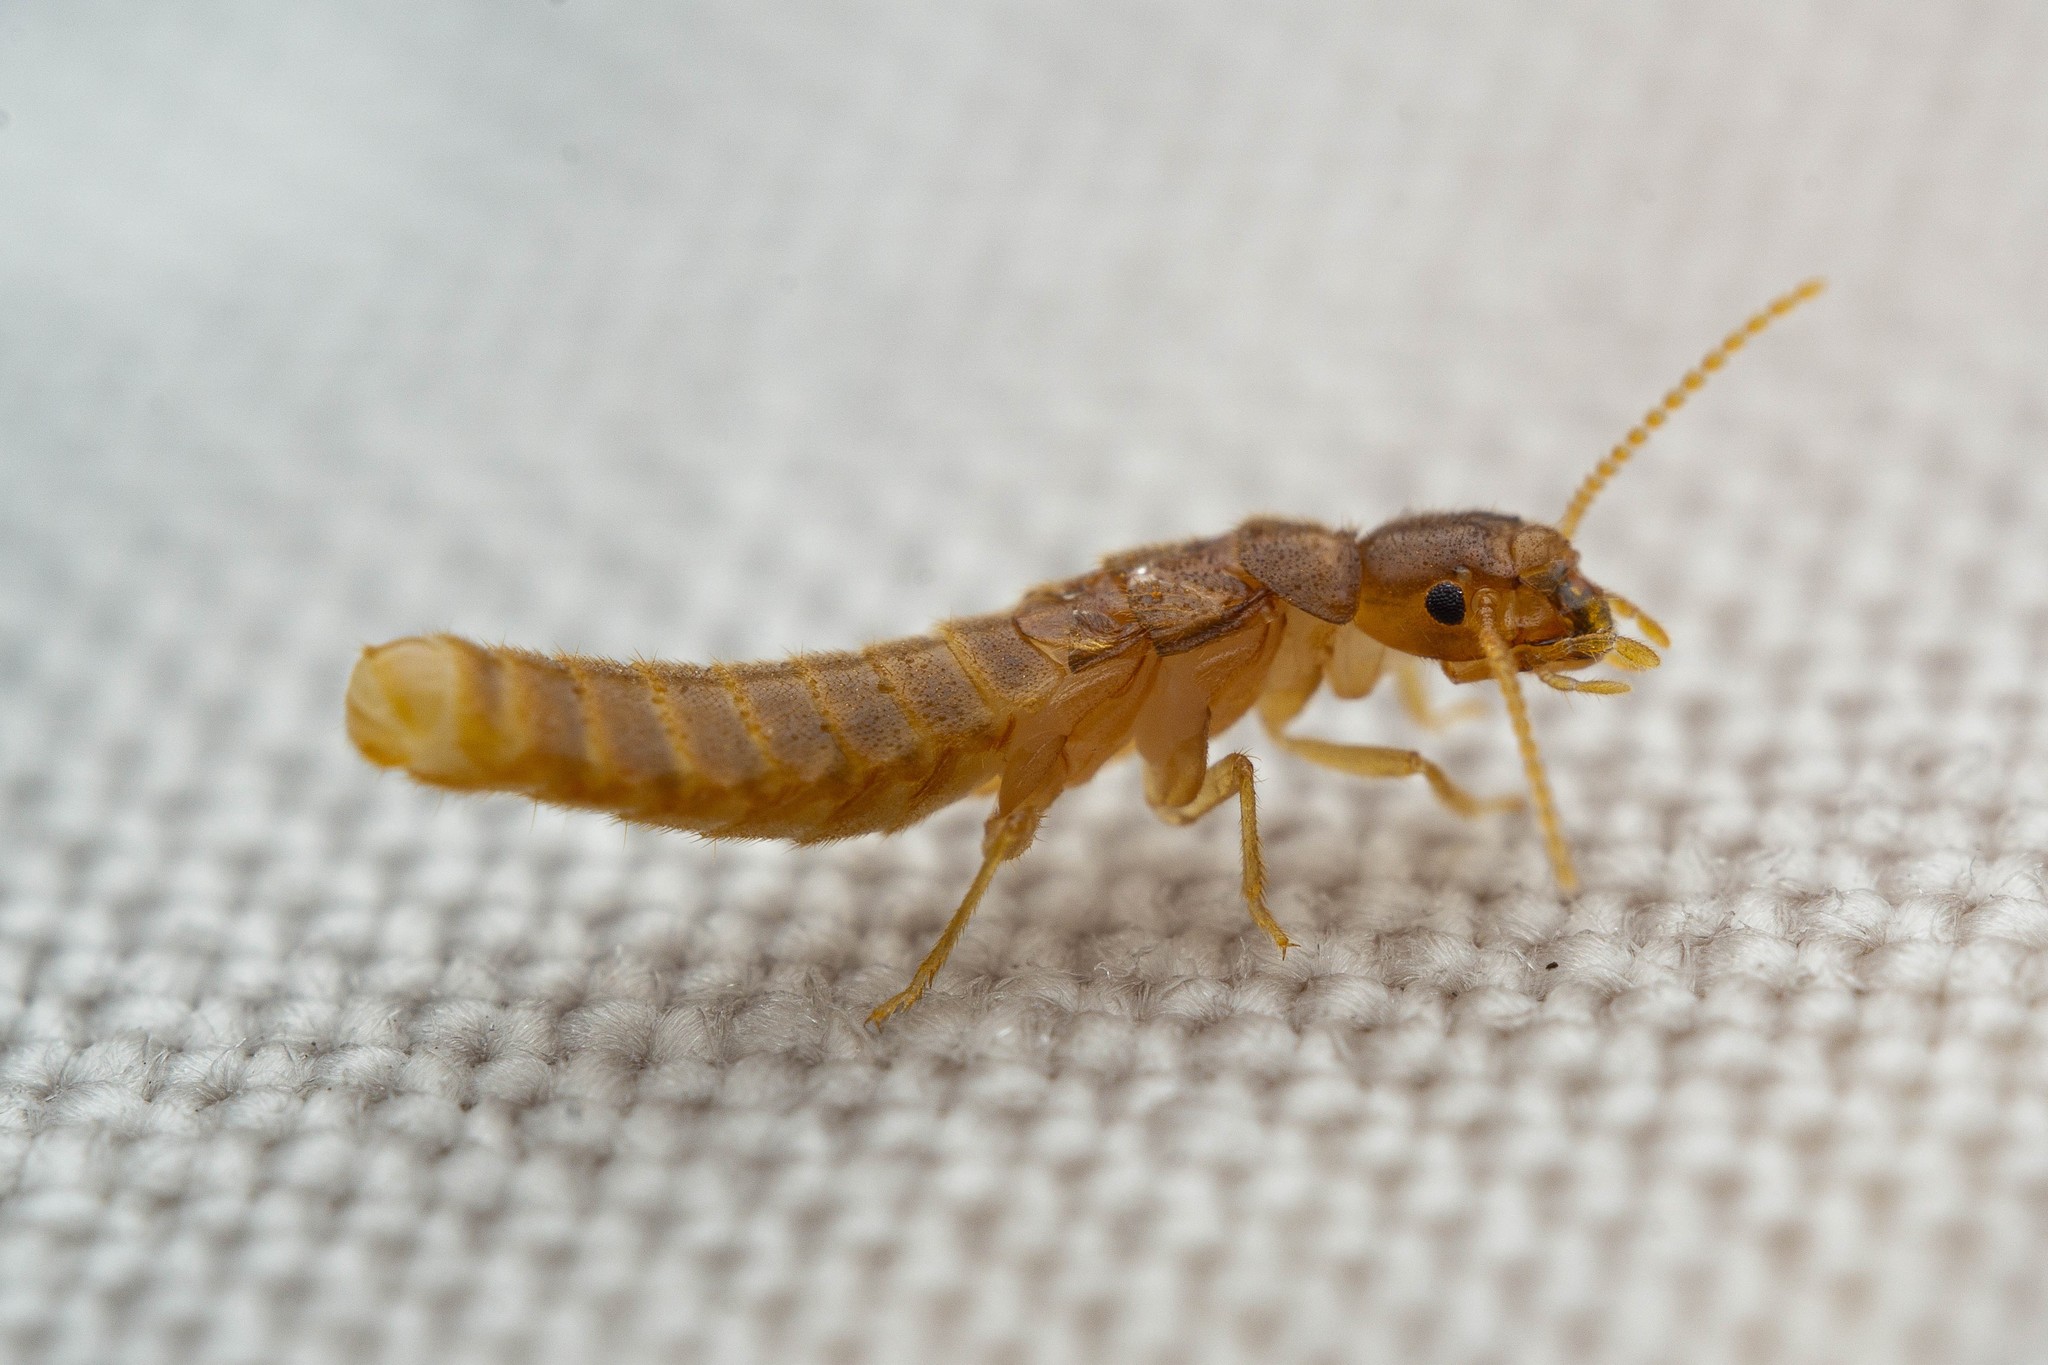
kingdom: Animalia
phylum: Arthropoda
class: Insecta
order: Blattodea
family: Rhinotermitidae
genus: Heterotermes
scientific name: Heterotermes aureus
